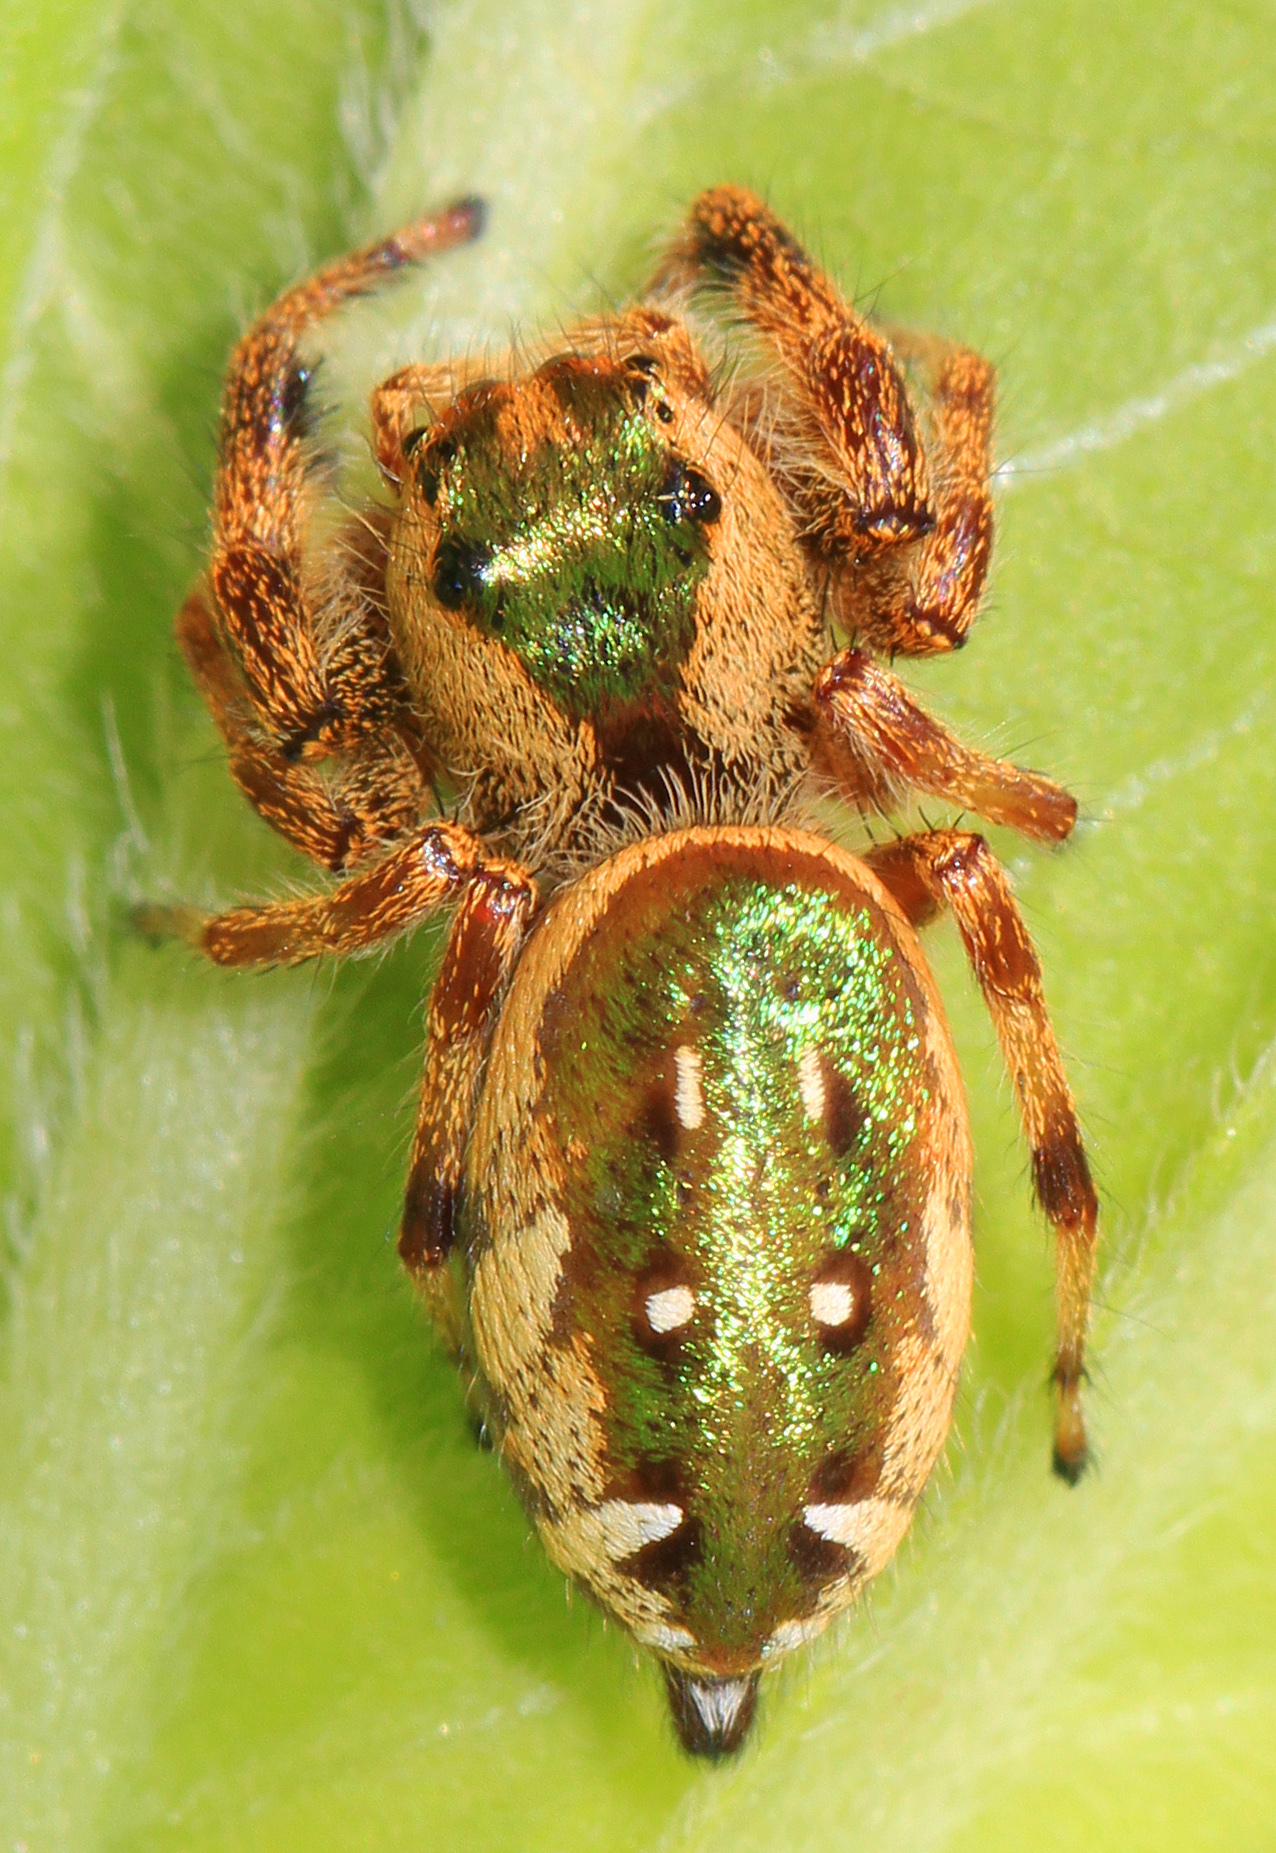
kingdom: Animalia
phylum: Arthropoda
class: Arachnida
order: Araneae
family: Salticidae
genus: Paraphidippus
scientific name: Paraphidippus aurantius
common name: Jumping spiders
